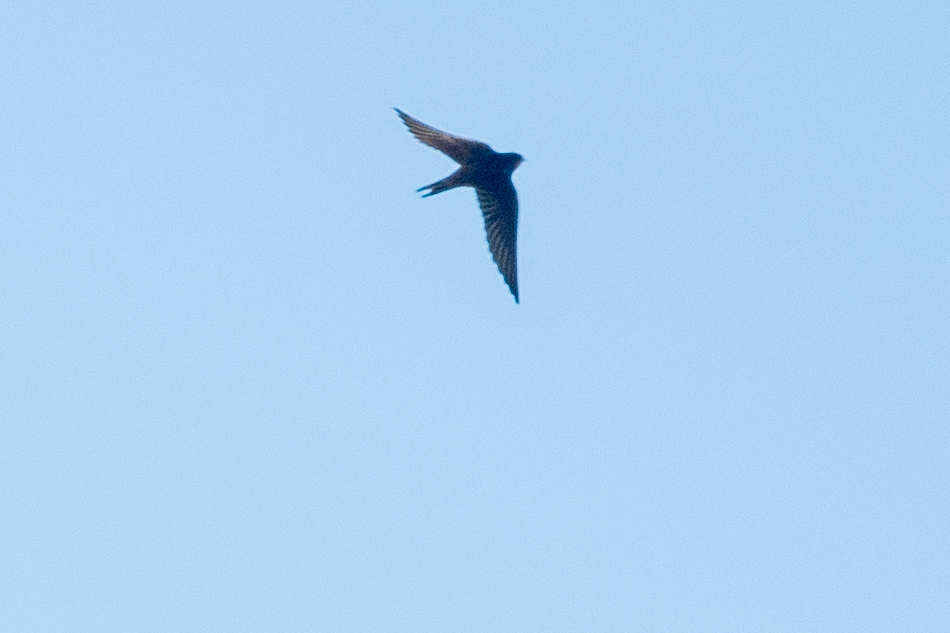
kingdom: Animalia
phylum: Chordata
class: Aves
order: Passeriformes
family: Hirundinidae
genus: Hirundo
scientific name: Hirundo rustica
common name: Barn swallow
